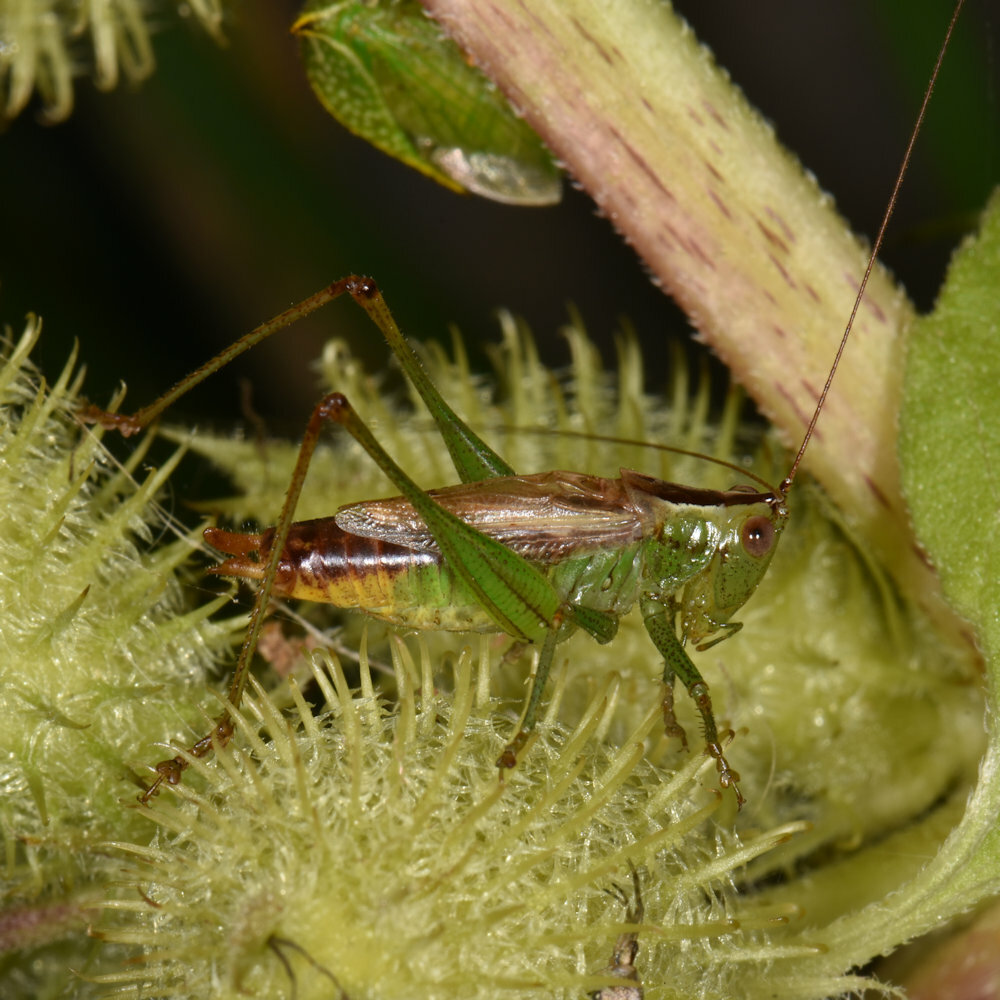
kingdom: Animalia
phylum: Arthropoda
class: Insecta
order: Orthoptera
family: Tettigoniidae
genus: Conocephalus
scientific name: Conocephalus brevipennis
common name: Short-winged meadow katydid
